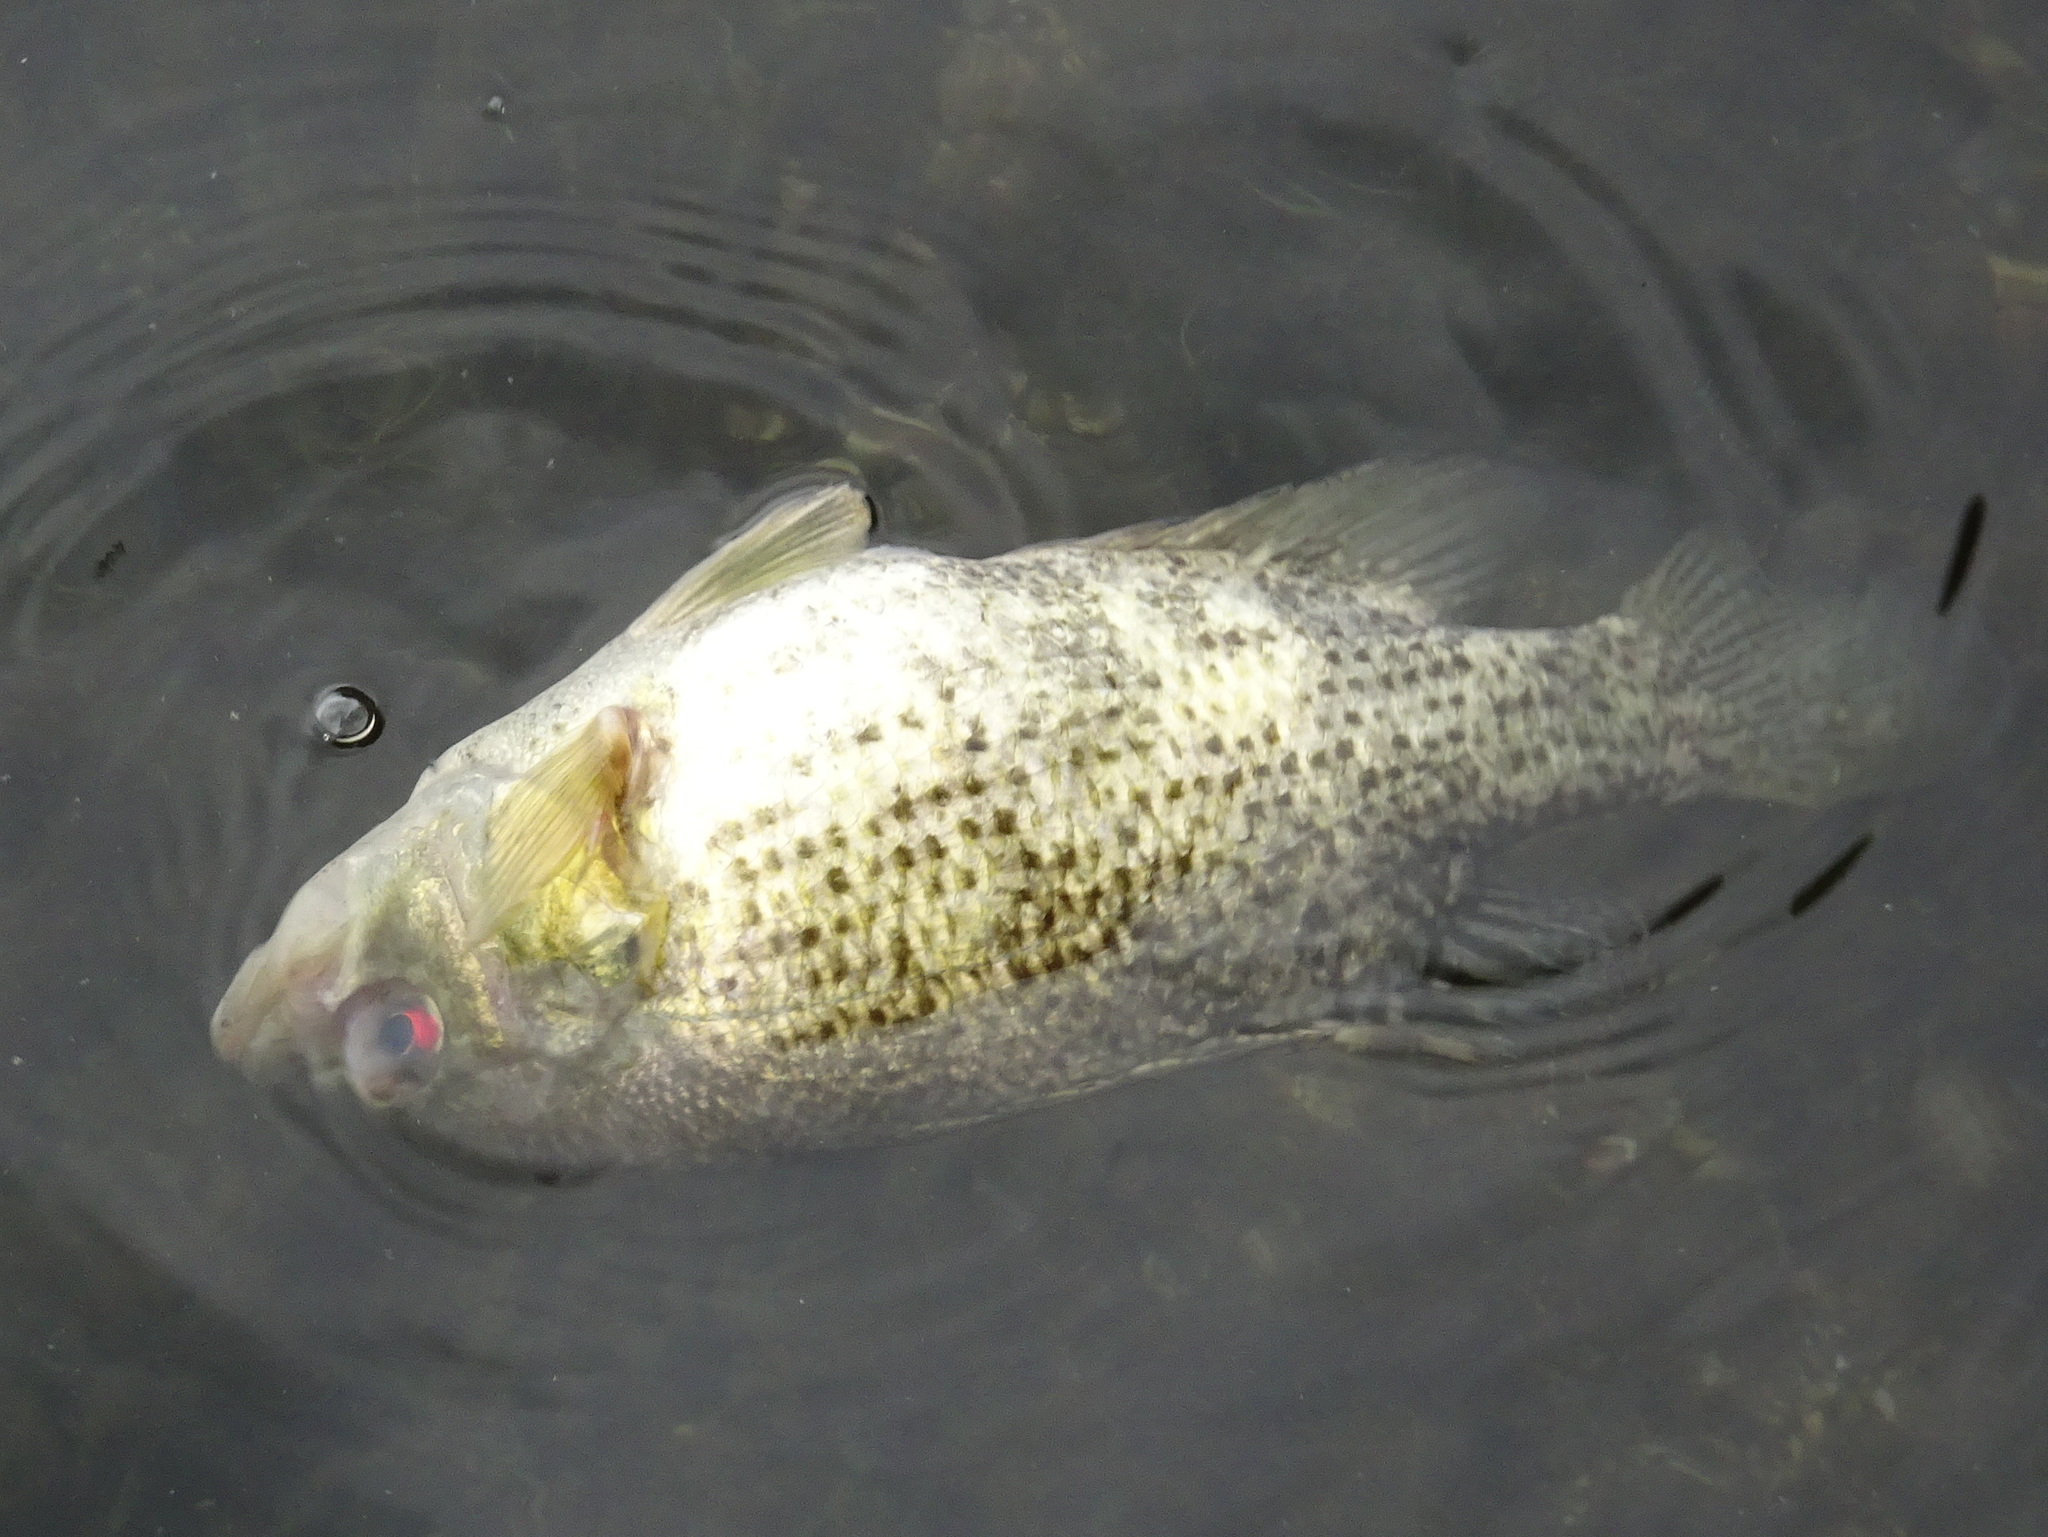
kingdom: Animalia
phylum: Chordata
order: Perciformes
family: Centrarchidae
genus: Ambloplites
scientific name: Ambloplites rupestris
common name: Rock bass
